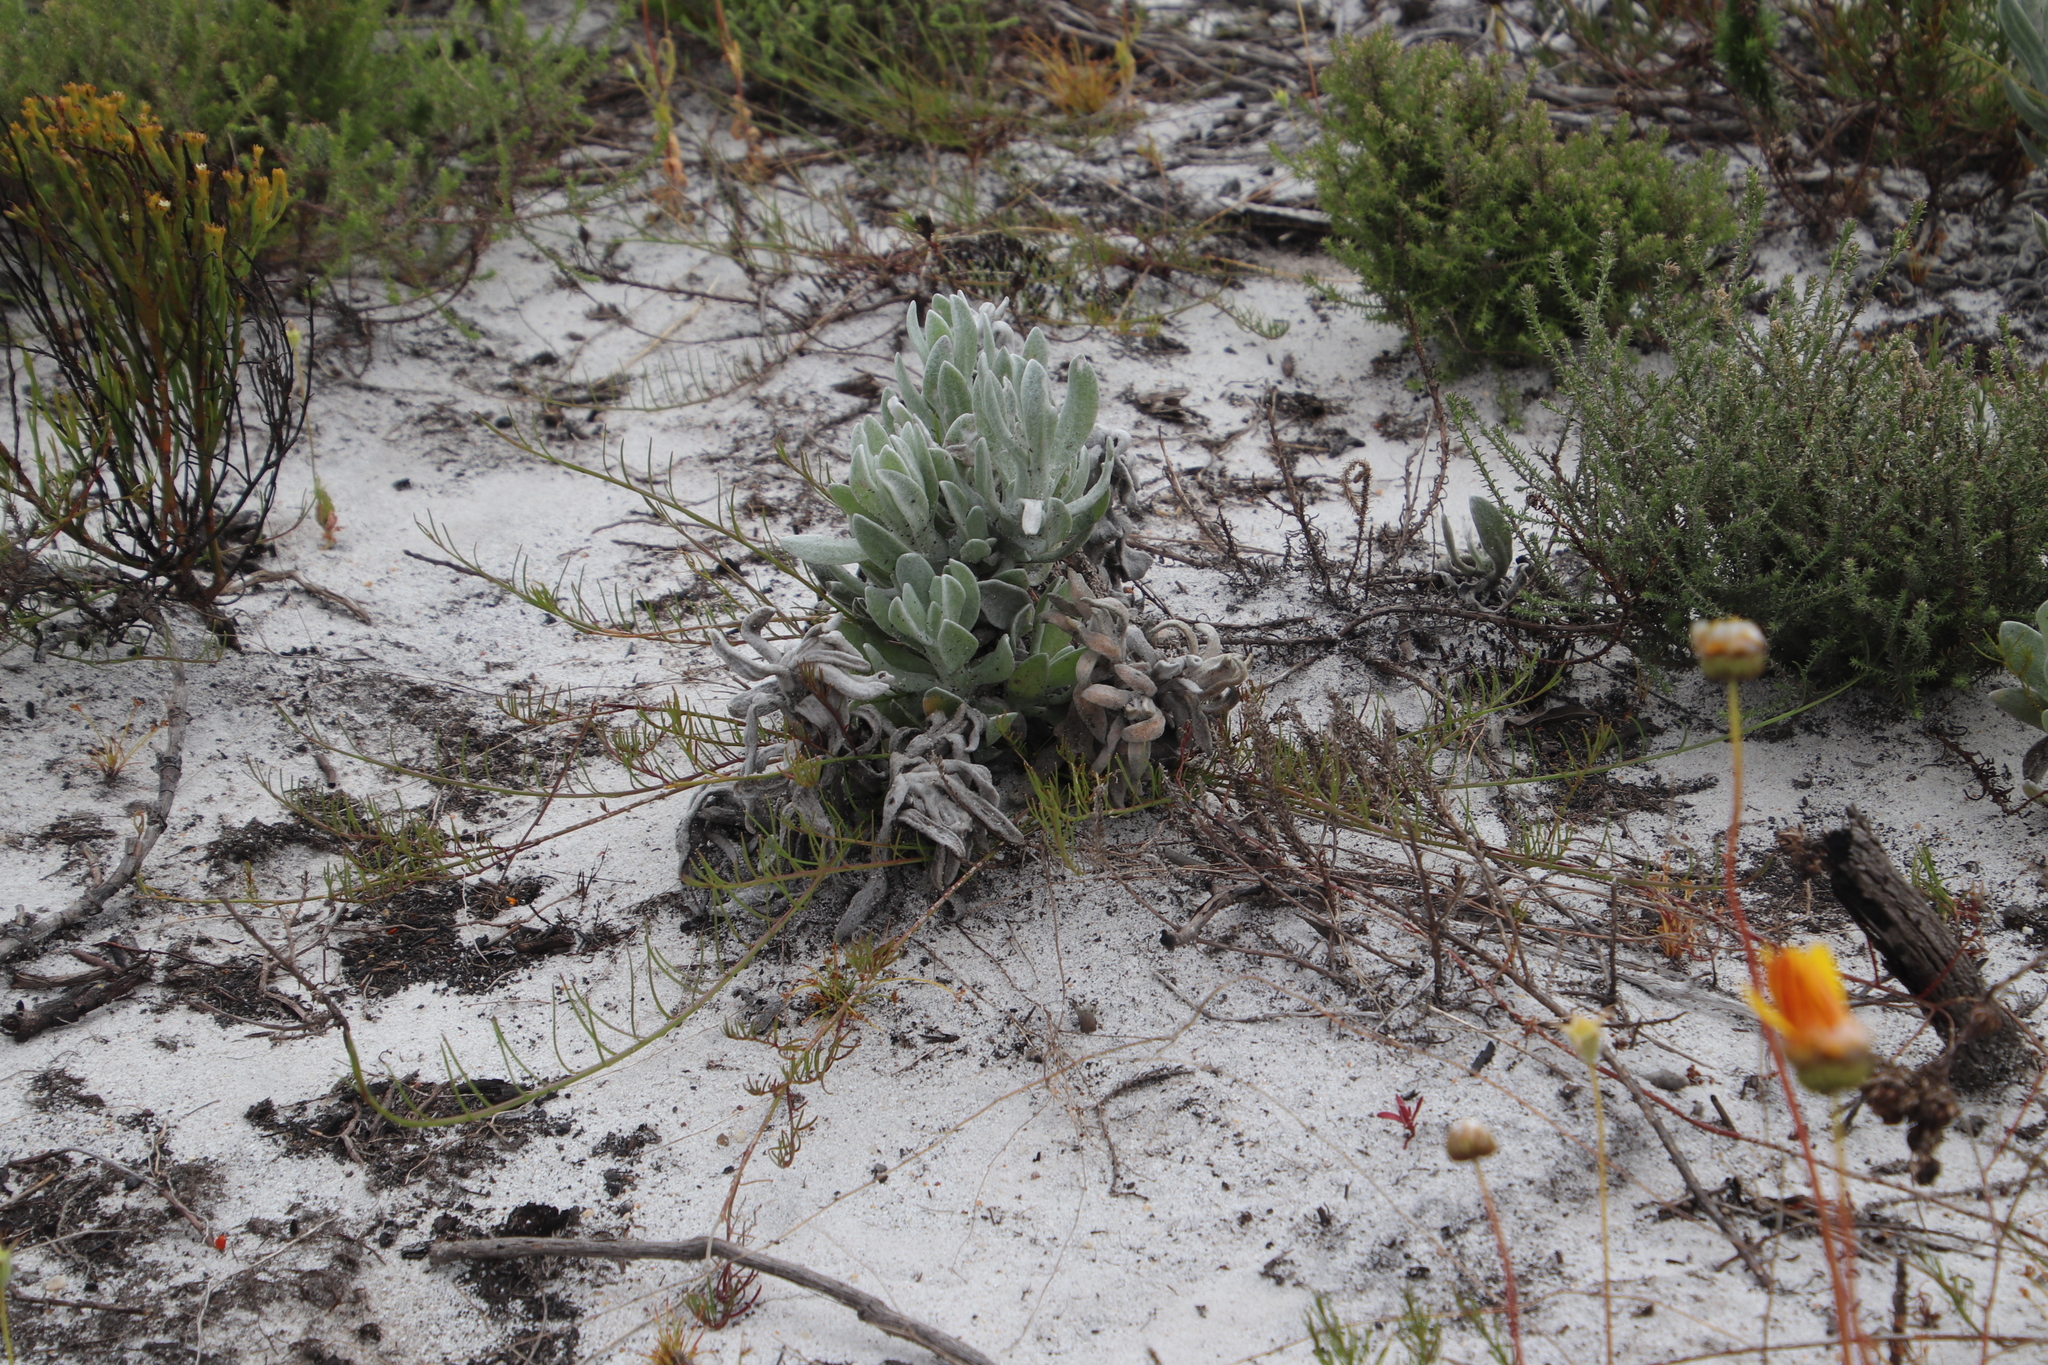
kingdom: Plantae
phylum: Tracheophyta
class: Magnoliopsida
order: Asterales
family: Asteraceae
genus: Syncarpha
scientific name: Syncarpha vestita
